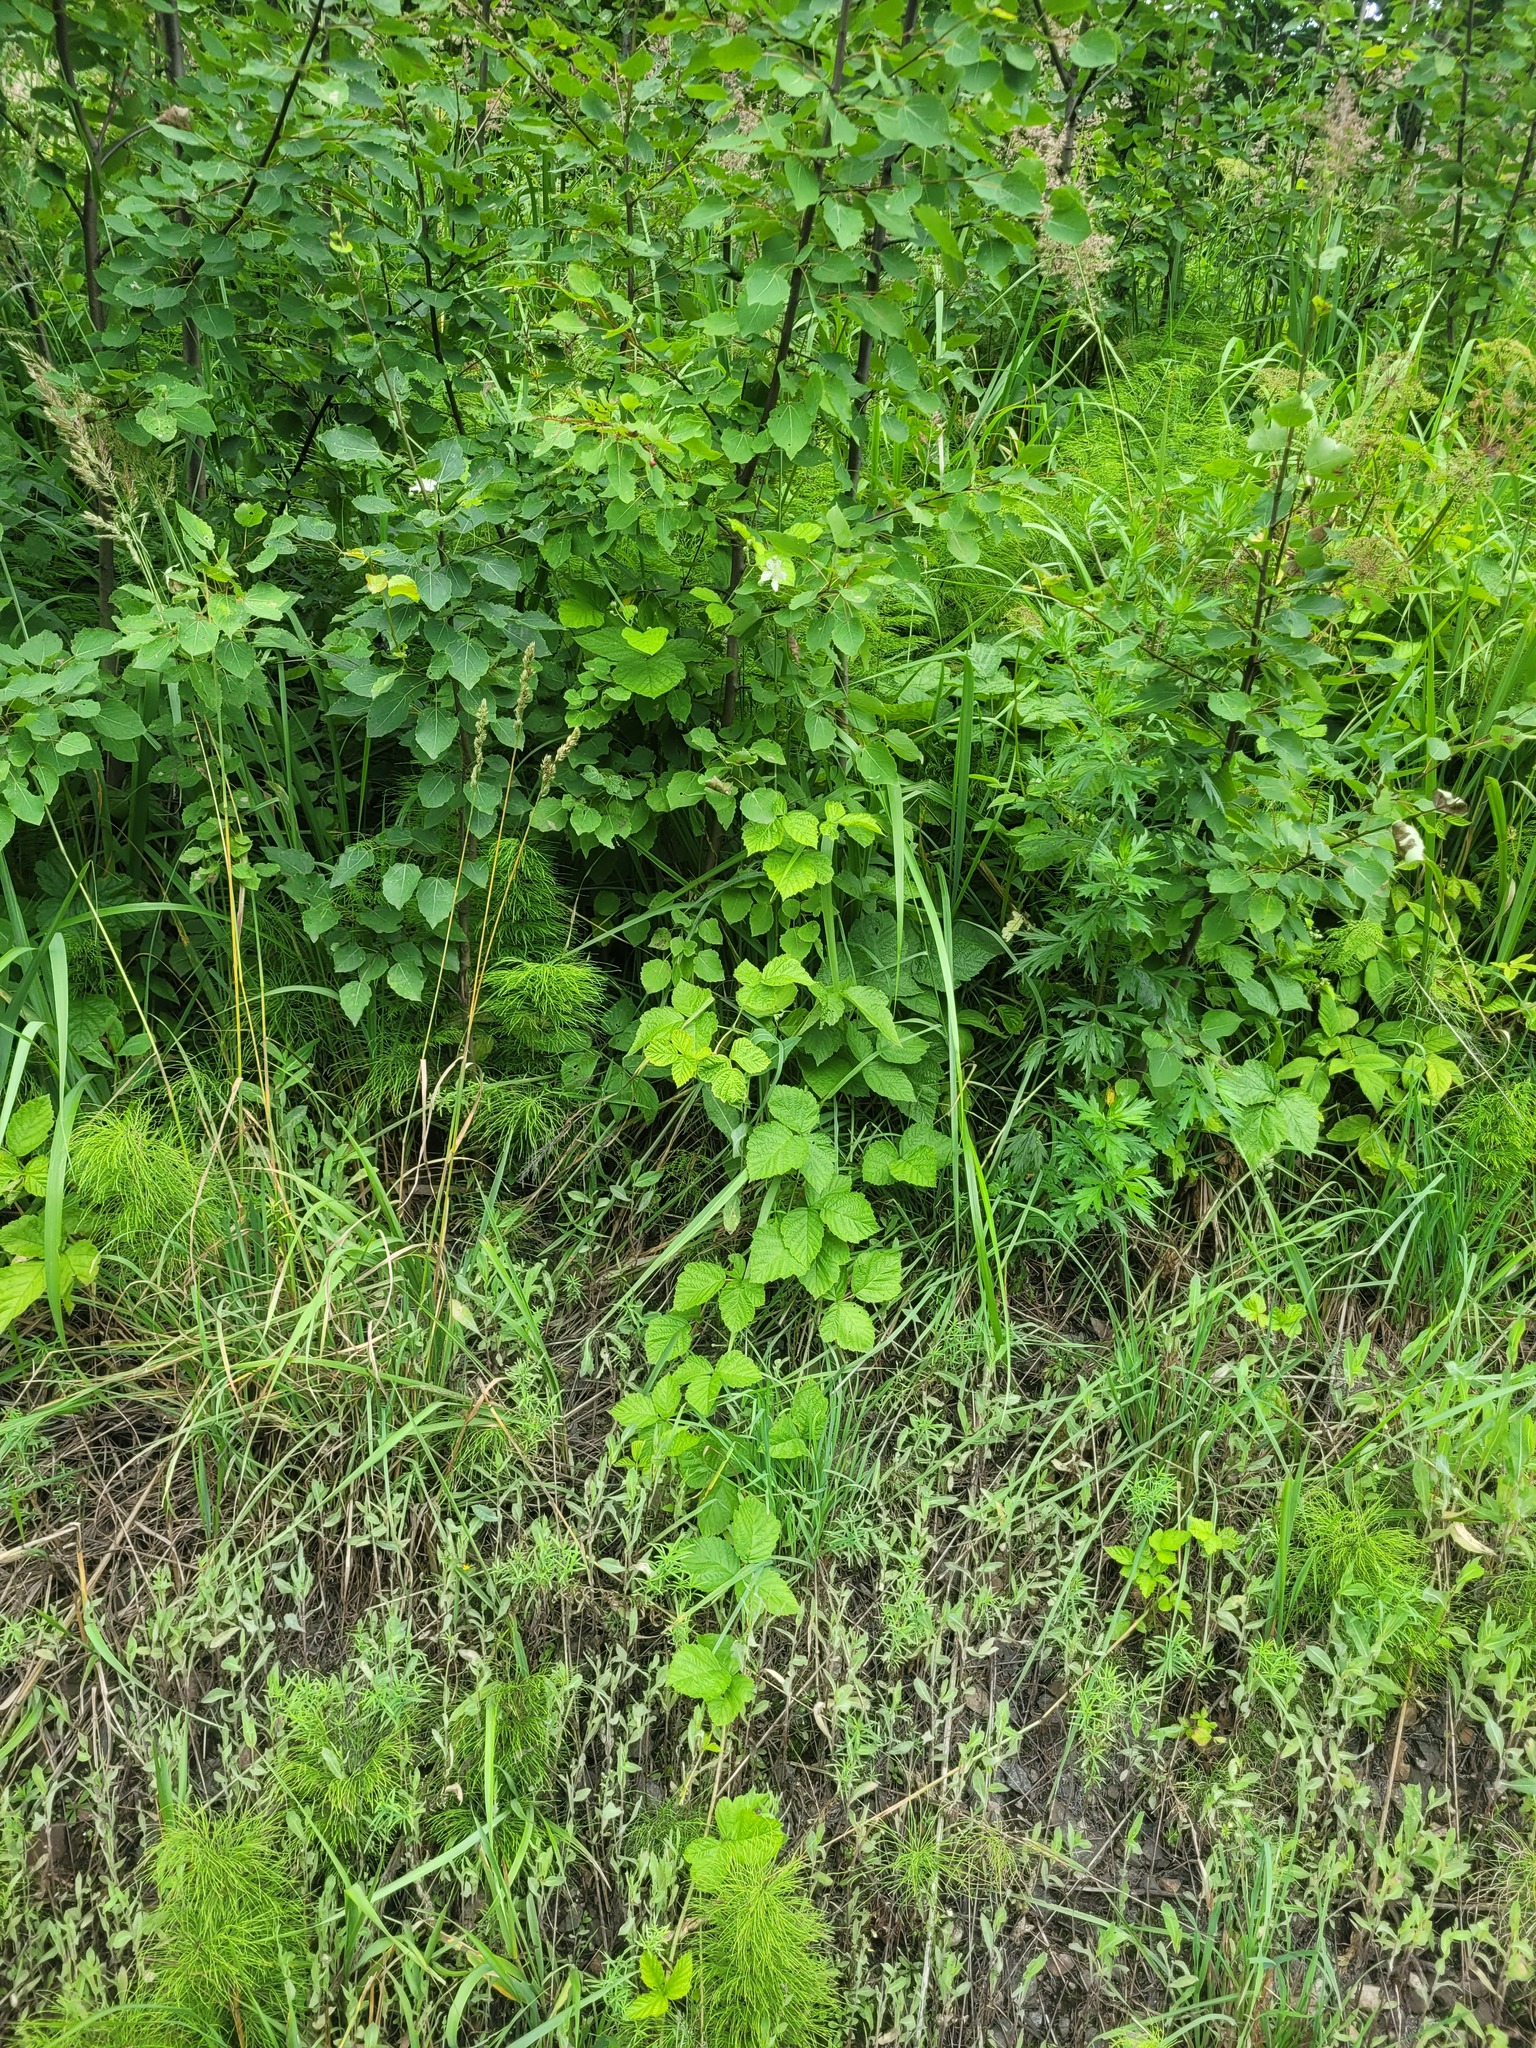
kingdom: Plantae
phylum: Tracheophyta
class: Magnoliopsida
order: Rosales
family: Rosaceae
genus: Rubus
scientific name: Rubus caesius
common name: Dewberry
